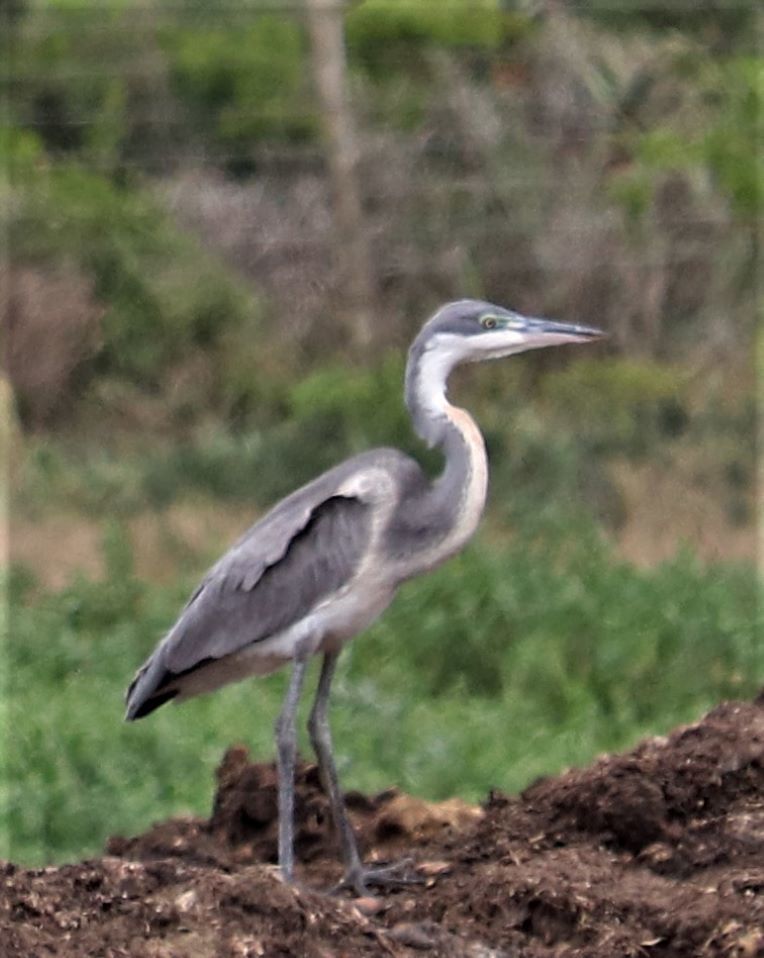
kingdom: Animalia
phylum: Chordata
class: Aves
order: Pelecaniformes
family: Ardeidae
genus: Ardea
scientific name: Ardea melanocephala
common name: Black-headed heron
